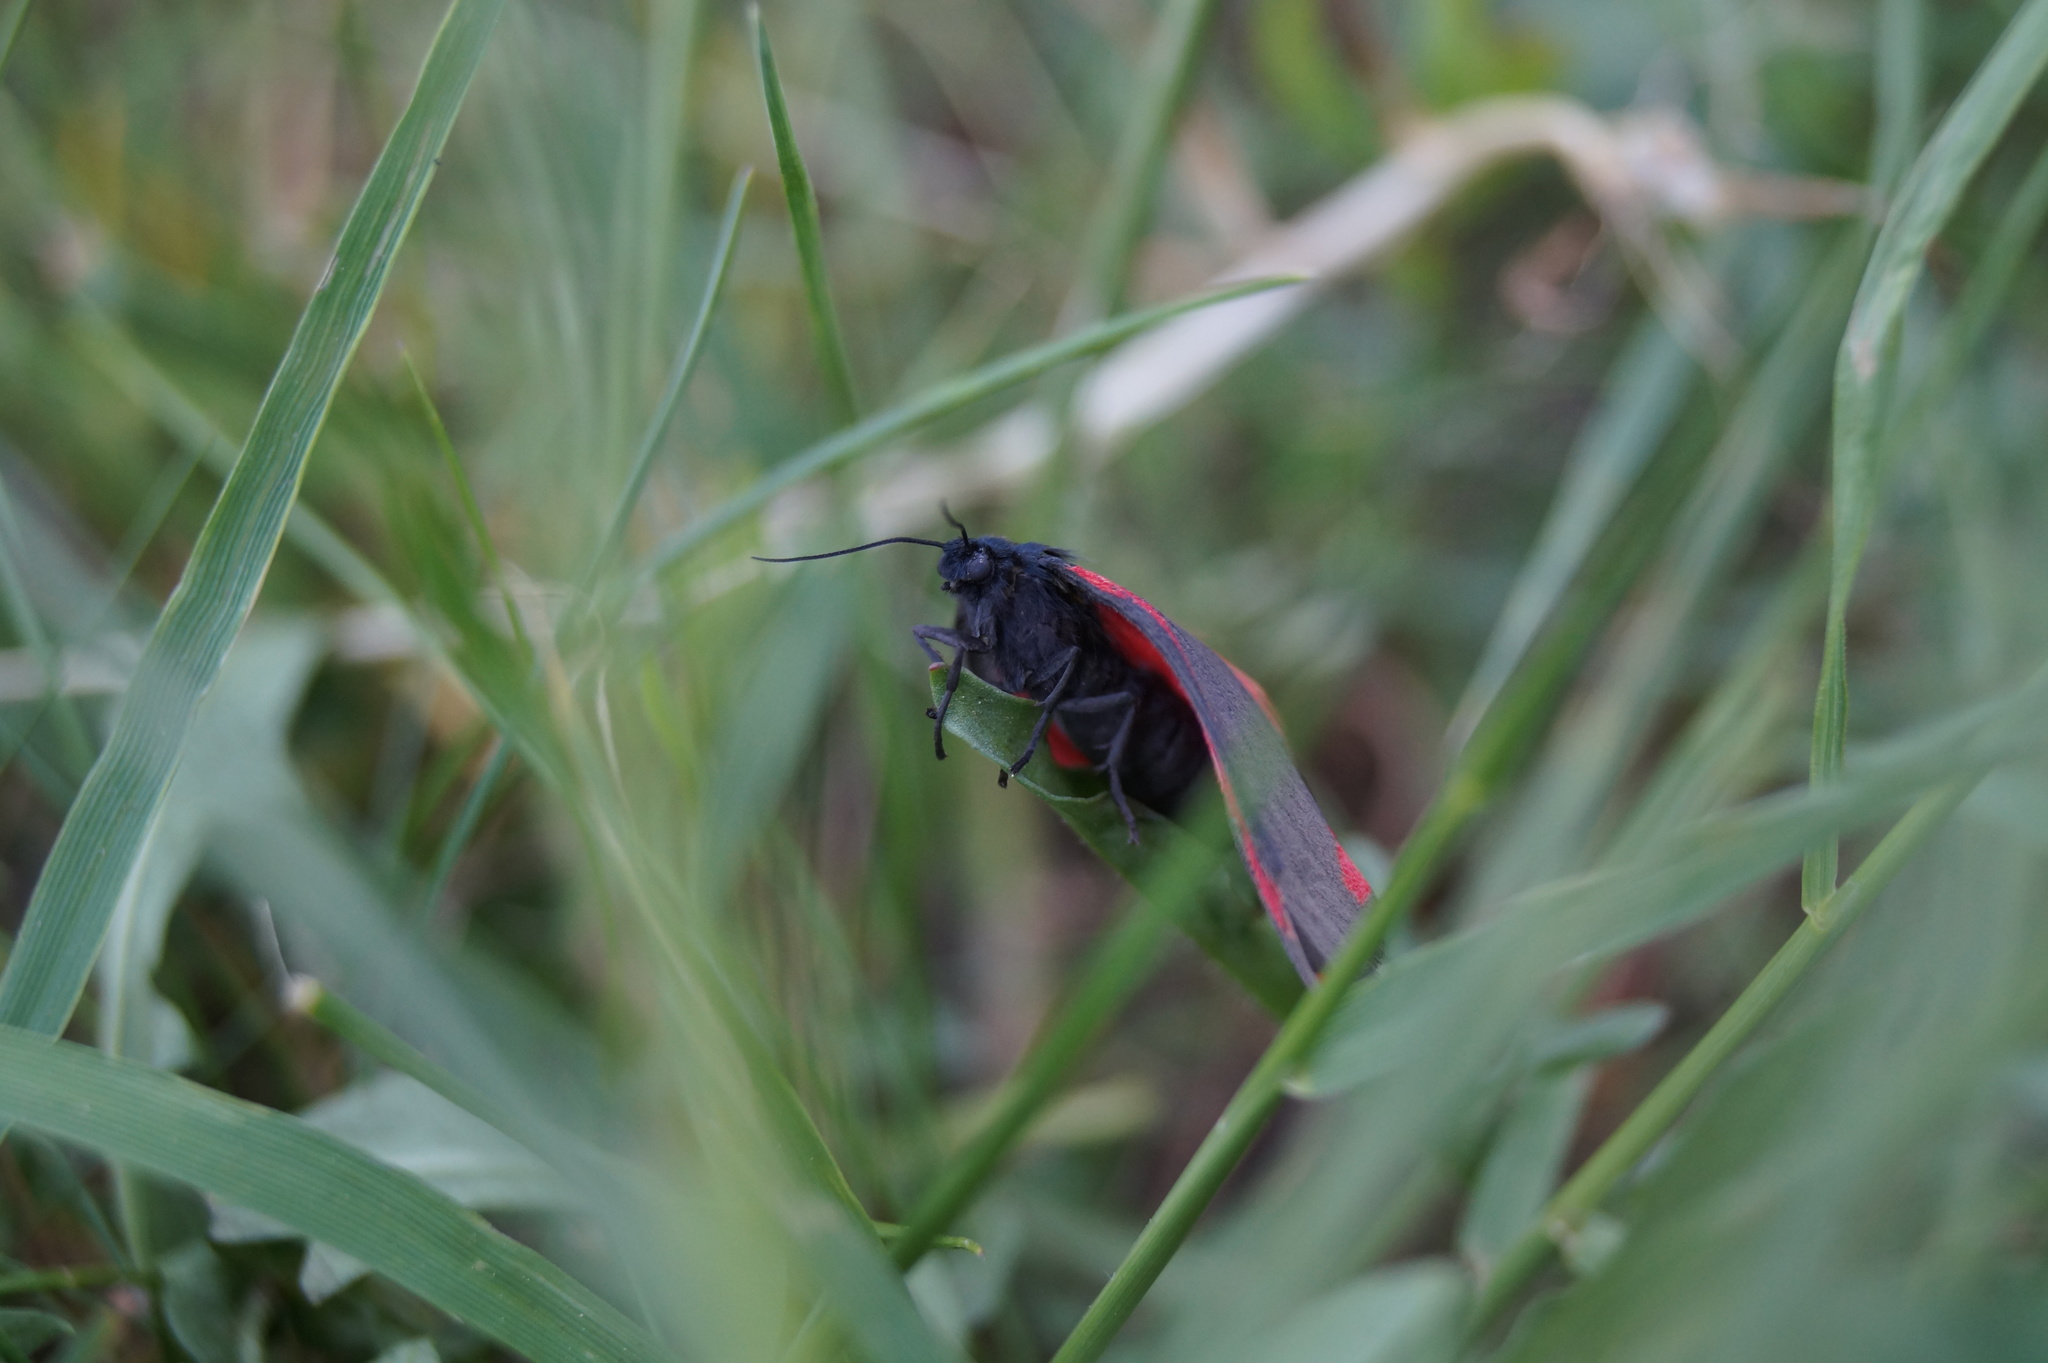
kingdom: Animalia
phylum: Arthropoda
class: Insecta
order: Lepidoptera
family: Erebidae
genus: Tyria
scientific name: Tyria jacobaeae
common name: Cinnabar
